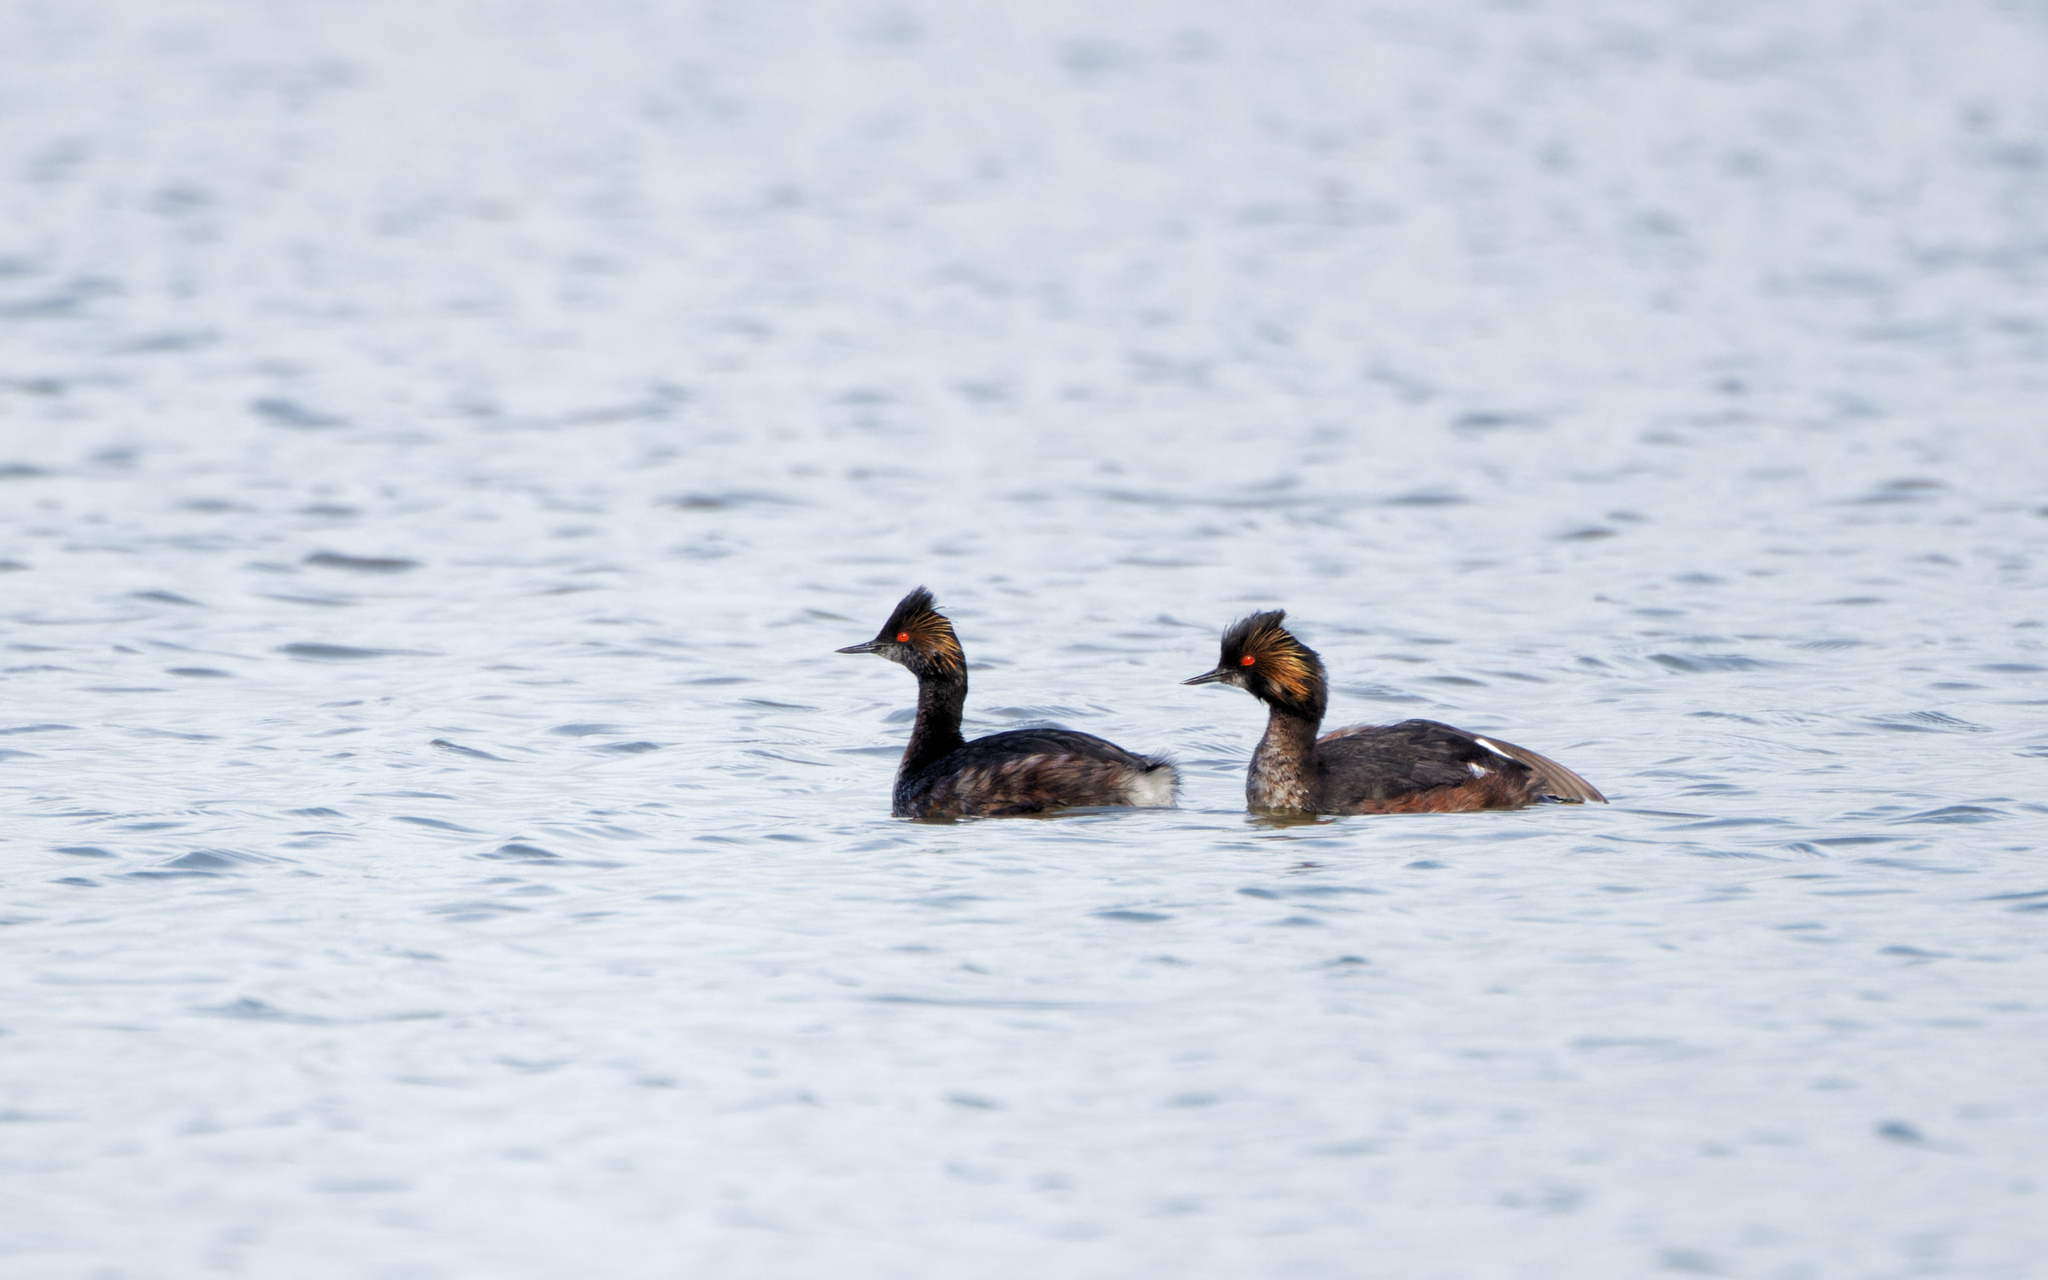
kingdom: Animalia
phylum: Chordata
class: Aves
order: Podicipediformes
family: Podicipedidae
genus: Podiceps
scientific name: Podiceps nigricollis
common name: Black-necked grebe
